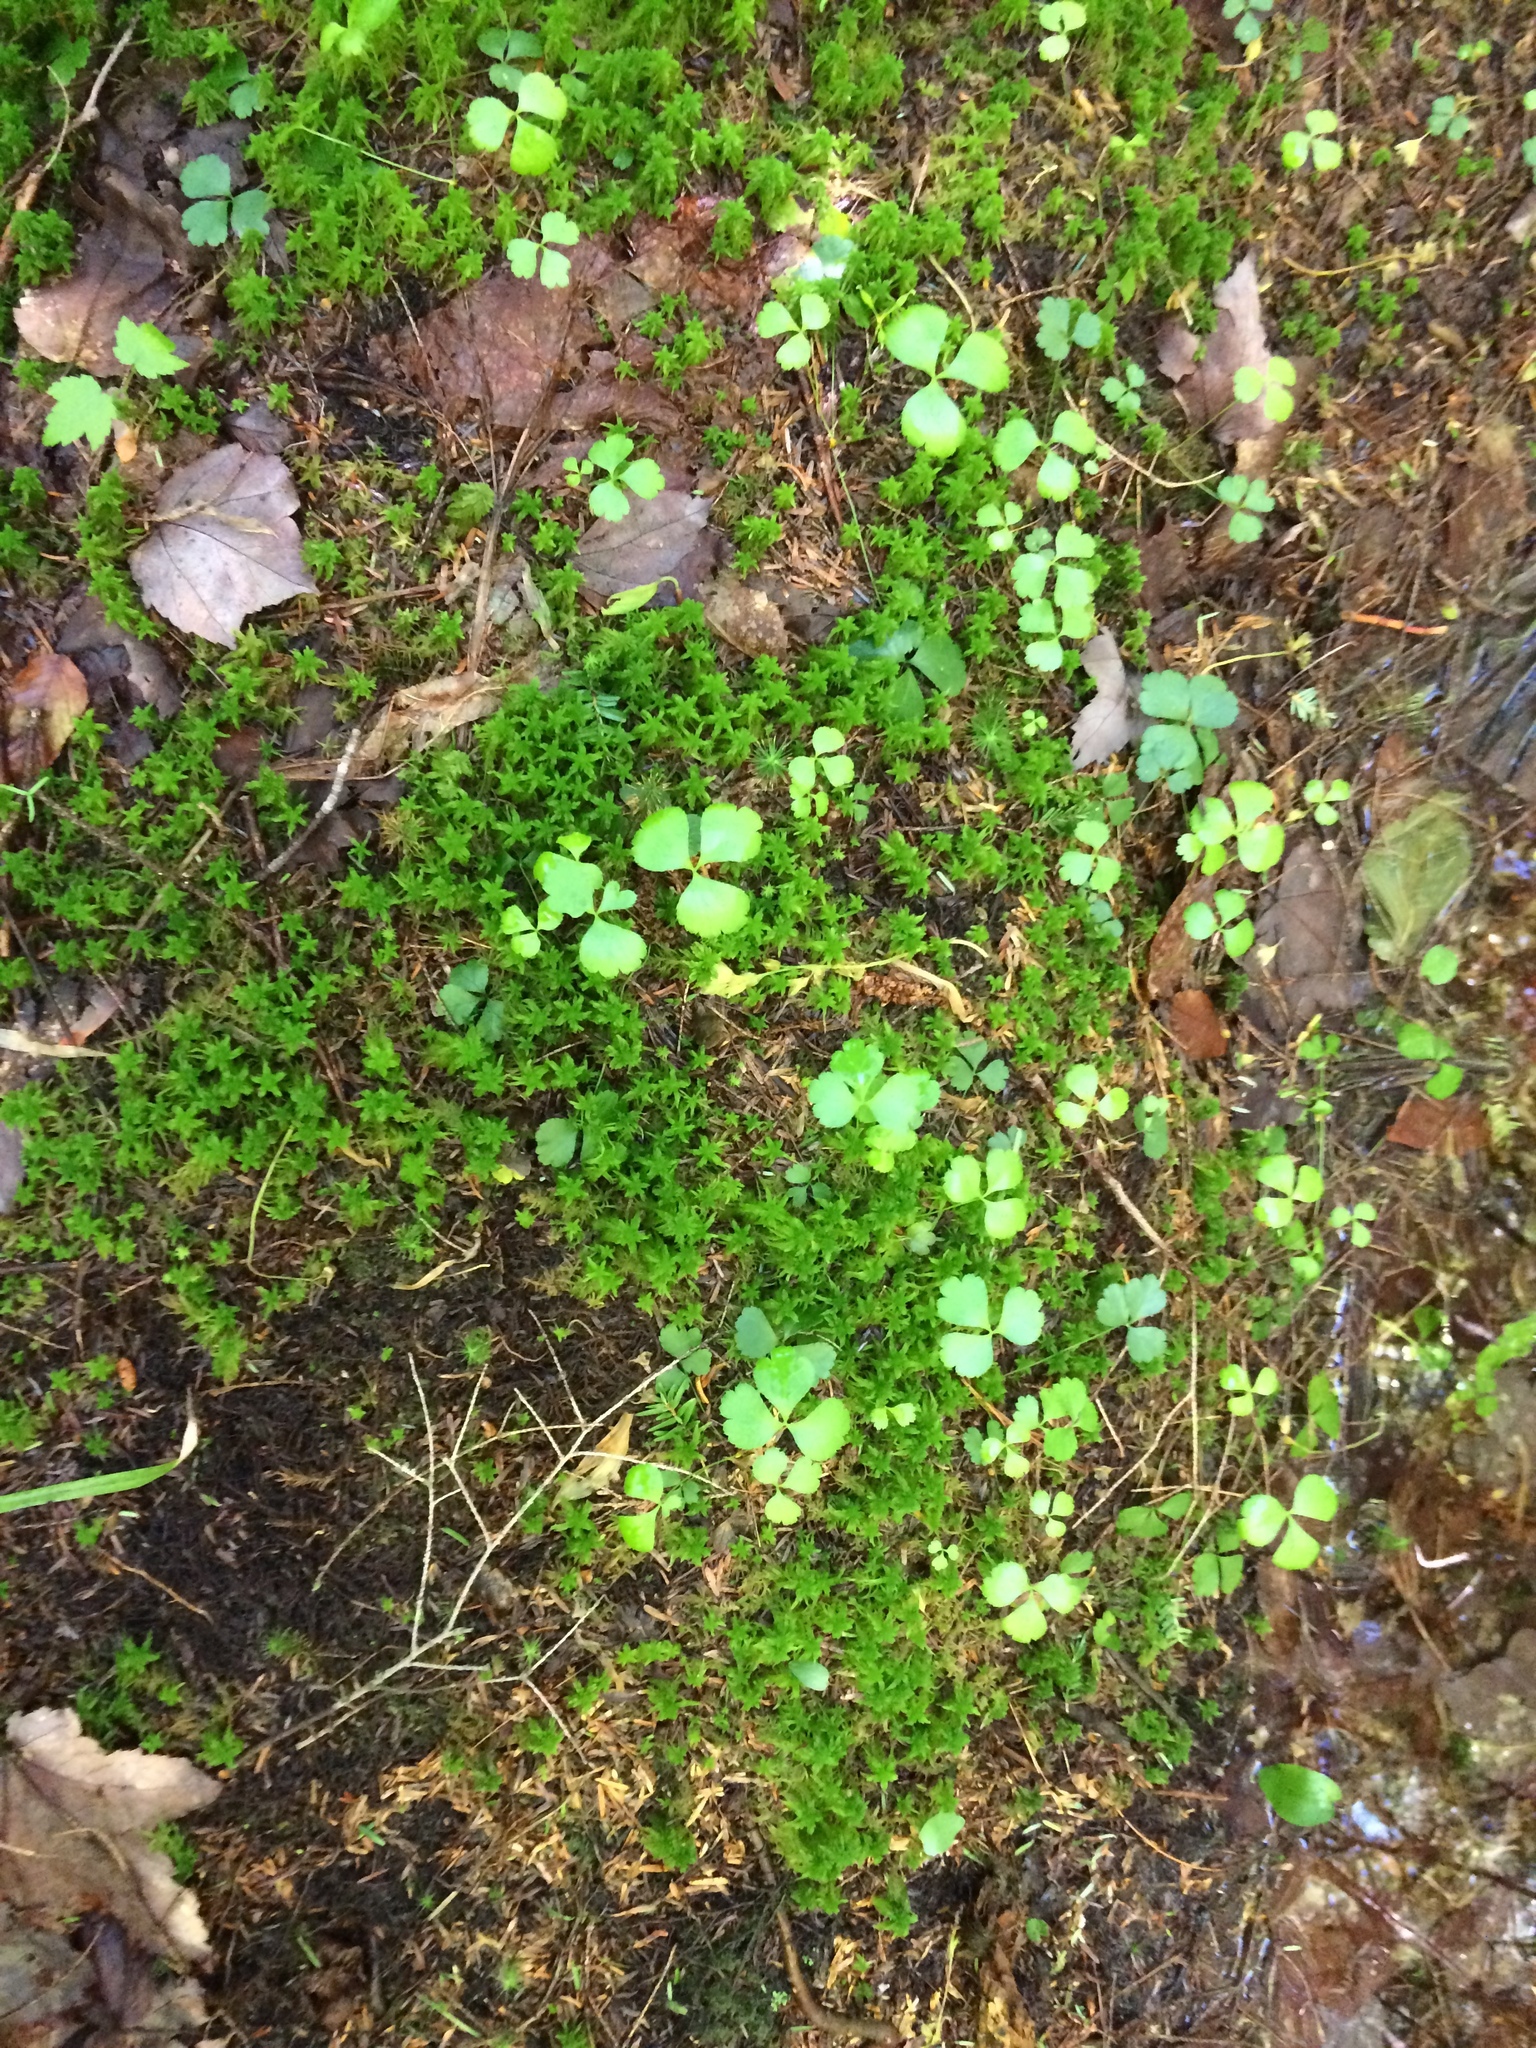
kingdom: Plantae
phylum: Tracheophyta
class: Magnoliopsida
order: Ranunculales
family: Ranunculaceae
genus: Coptis
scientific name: Coptis trifolia
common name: Canker-root
